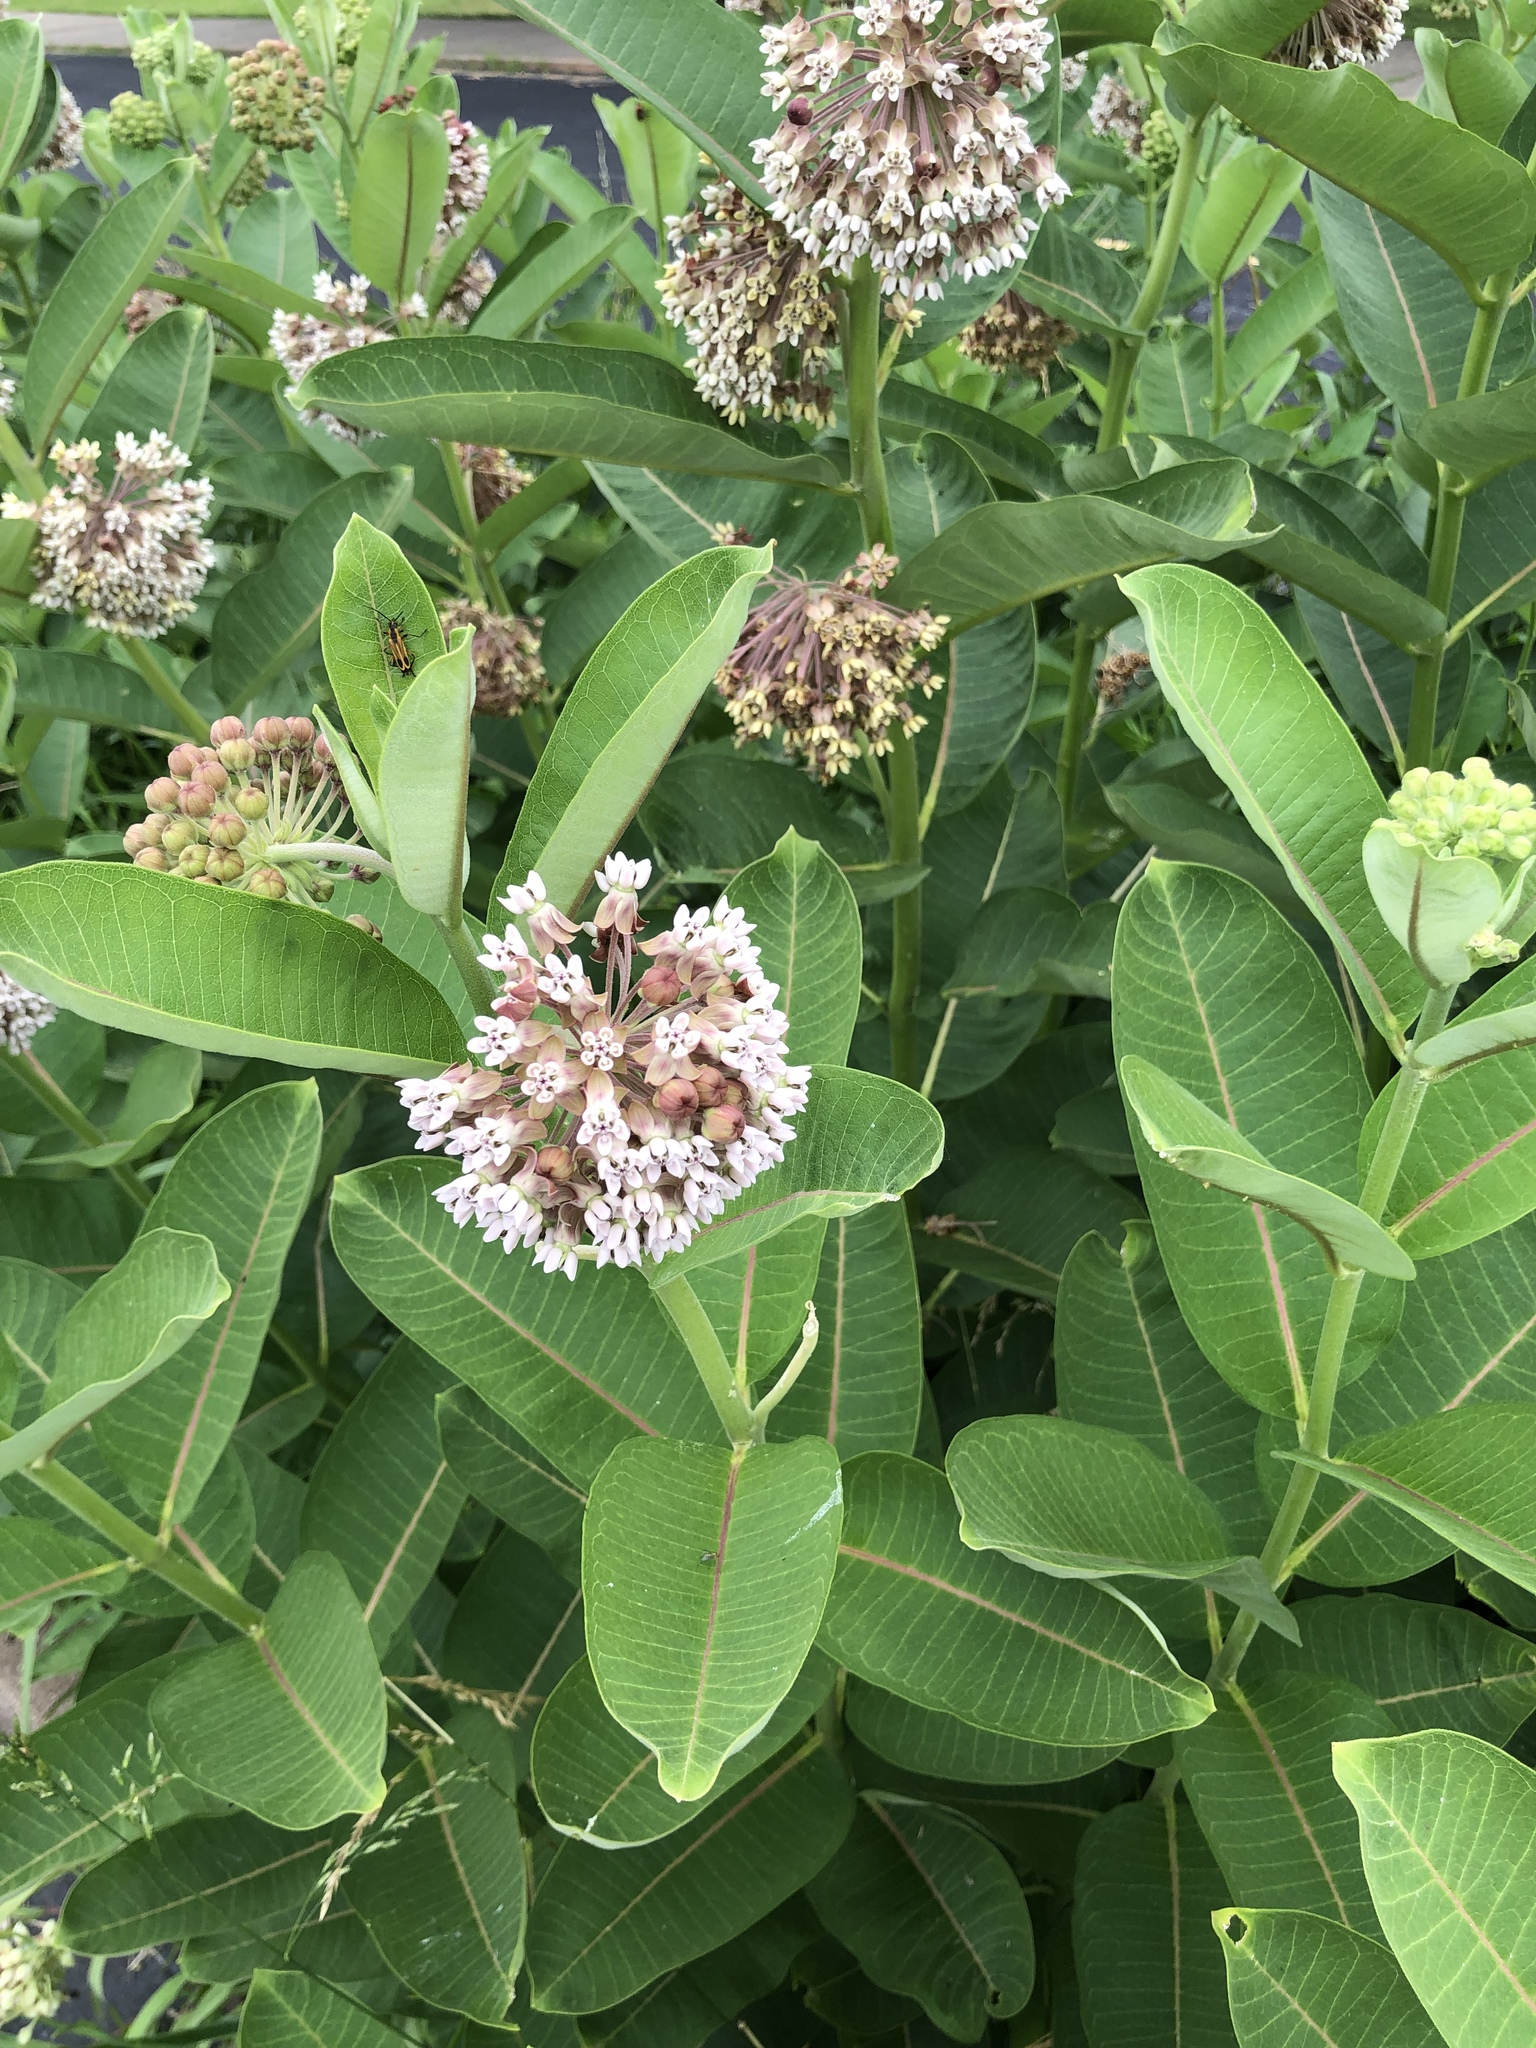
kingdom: Plantae
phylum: Tracheophyta
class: Magnoliopsida
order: Gentianales
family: Apocynaceae
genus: Asclepias
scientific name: Asclepias syriaca
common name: Common milkweed
